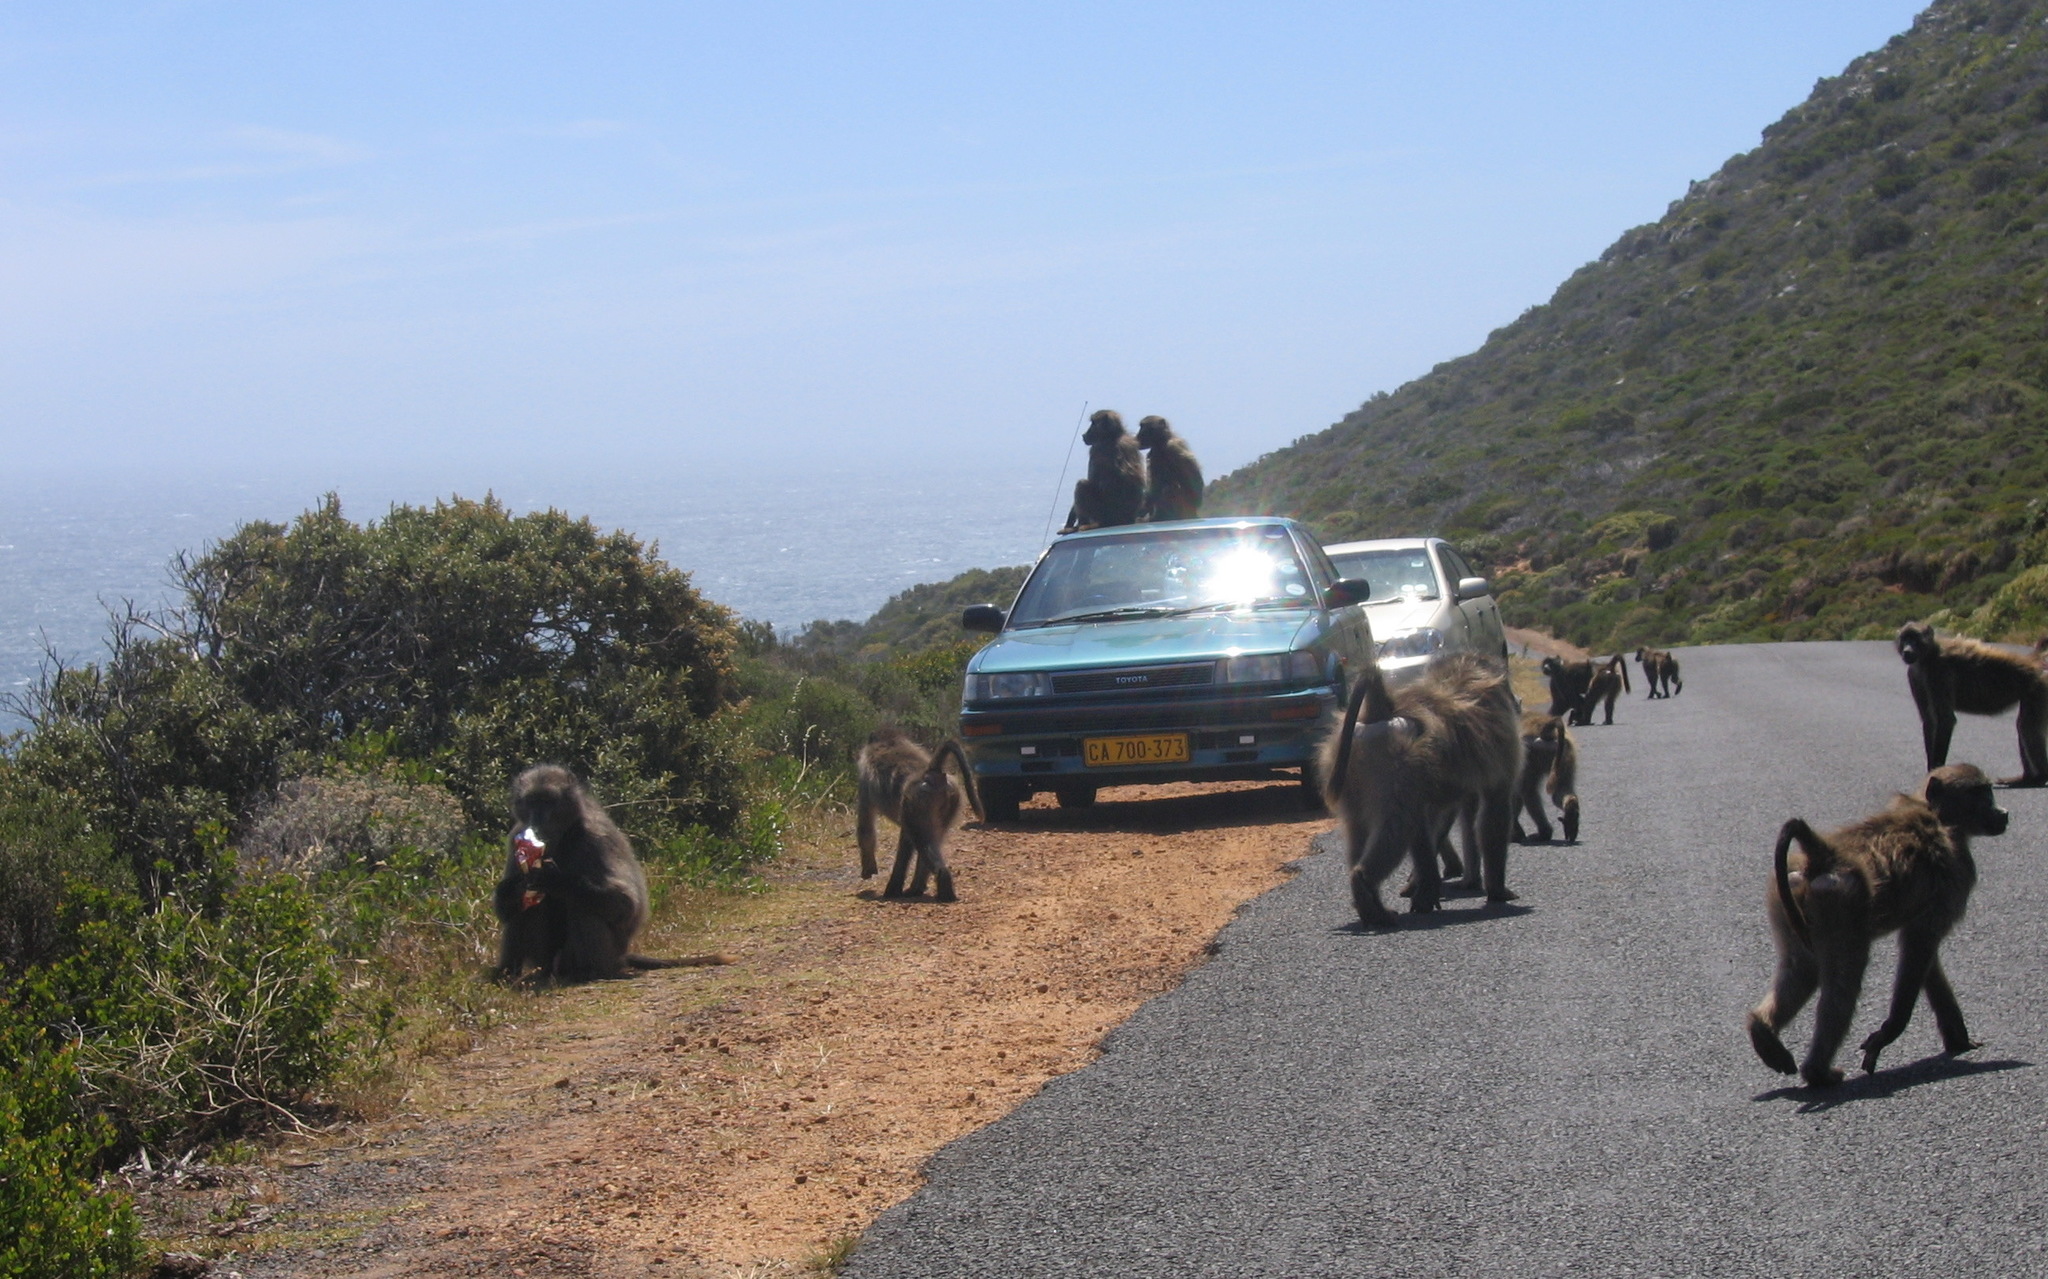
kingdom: Animalia
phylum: Chordata
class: Mammalia
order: Primates
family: Cercopithecidae
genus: Papio
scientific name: Papio ursinus
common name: Chacma baboon
